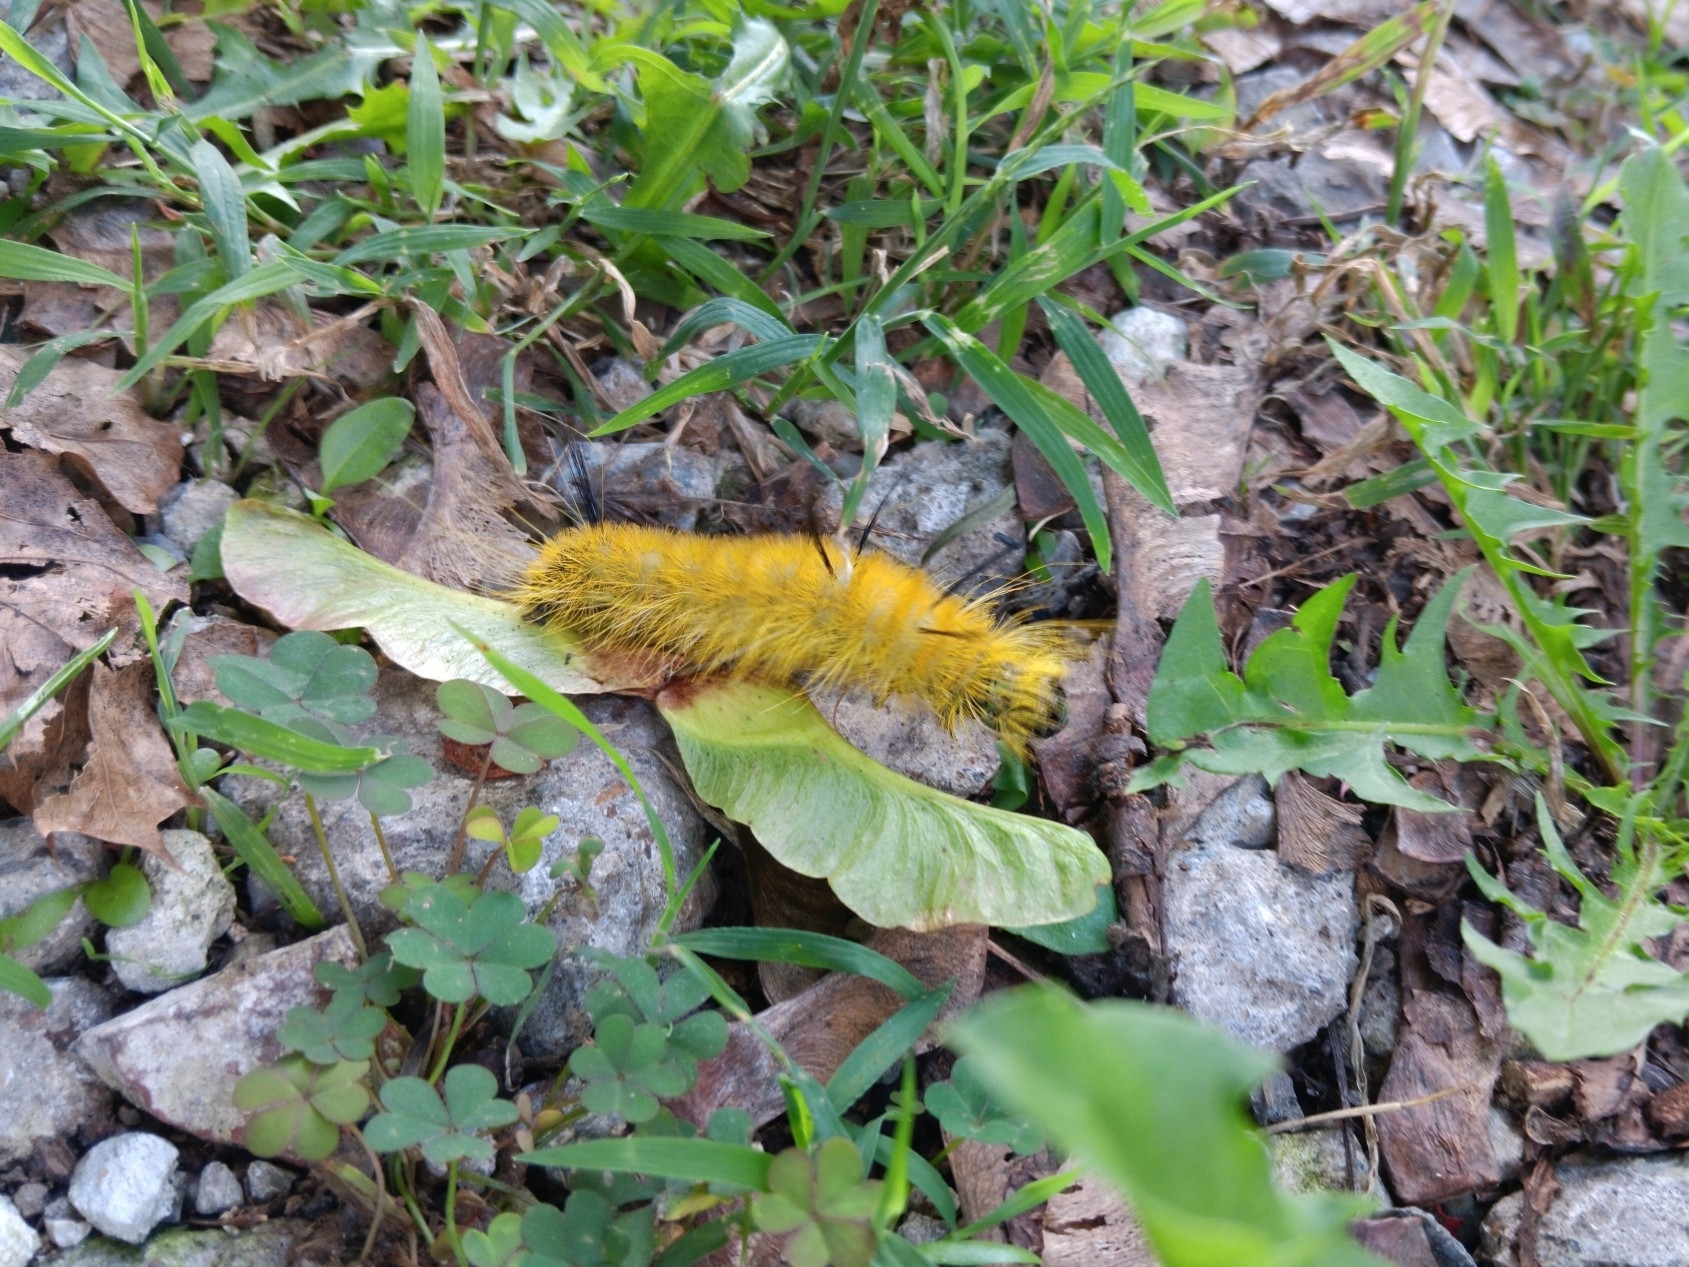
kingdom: Animalia
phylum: Arthropoda
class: Insecta
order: Lepidoptera
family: Noctuidae
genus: Acronicta
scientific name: Acronicta americana
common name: American dagger
